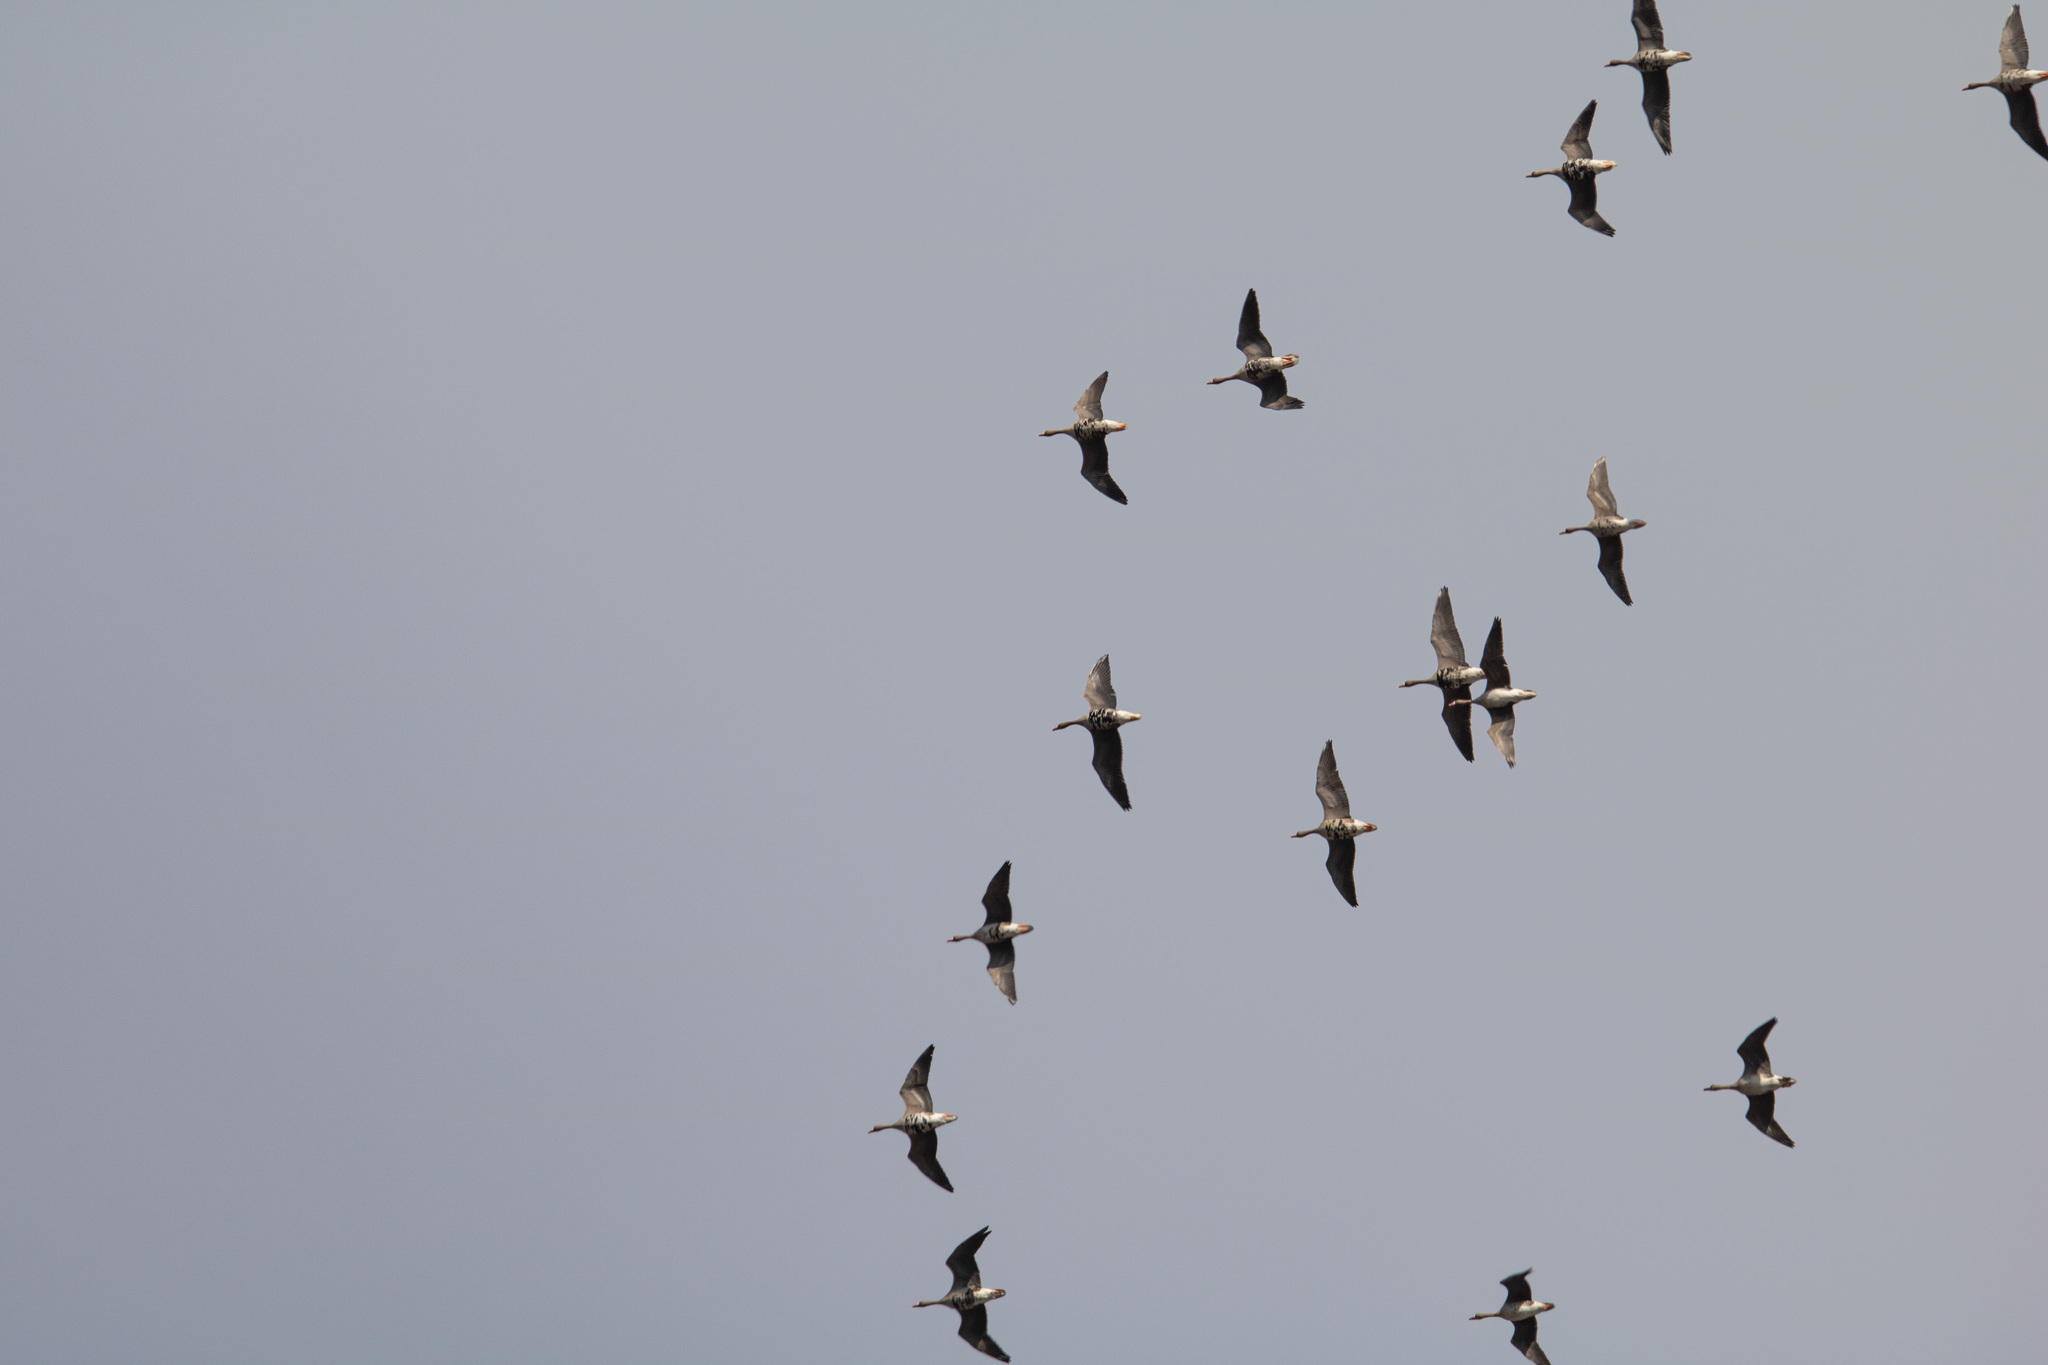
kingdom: Animalia
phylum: Chordata
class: Aves
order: Anseriformes
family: Anatidae
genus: Anser
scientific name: Anser albifrons
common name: Greater white-fronted goose
